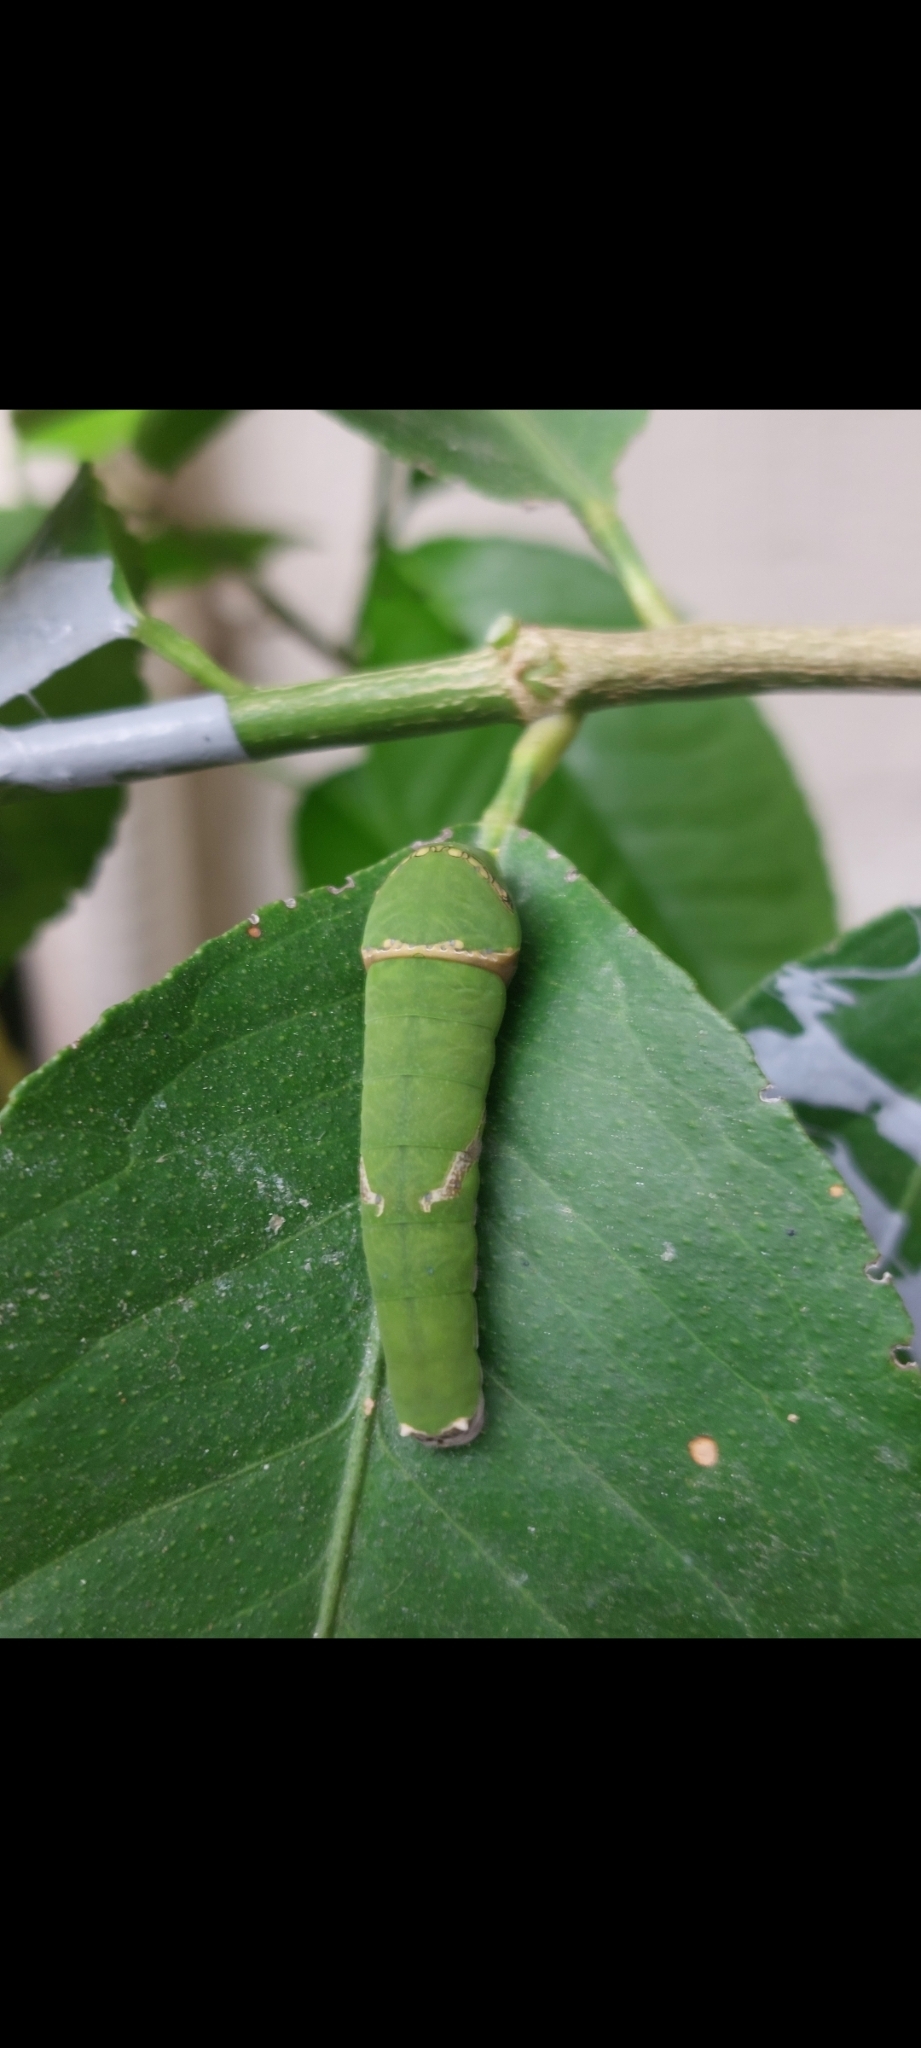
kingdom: Animalia
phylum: Arthropoda
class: Insecta
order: Lepidoptera
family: Papilionidae
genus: Papilio
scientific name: Papilio polytes
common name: Common mormon
